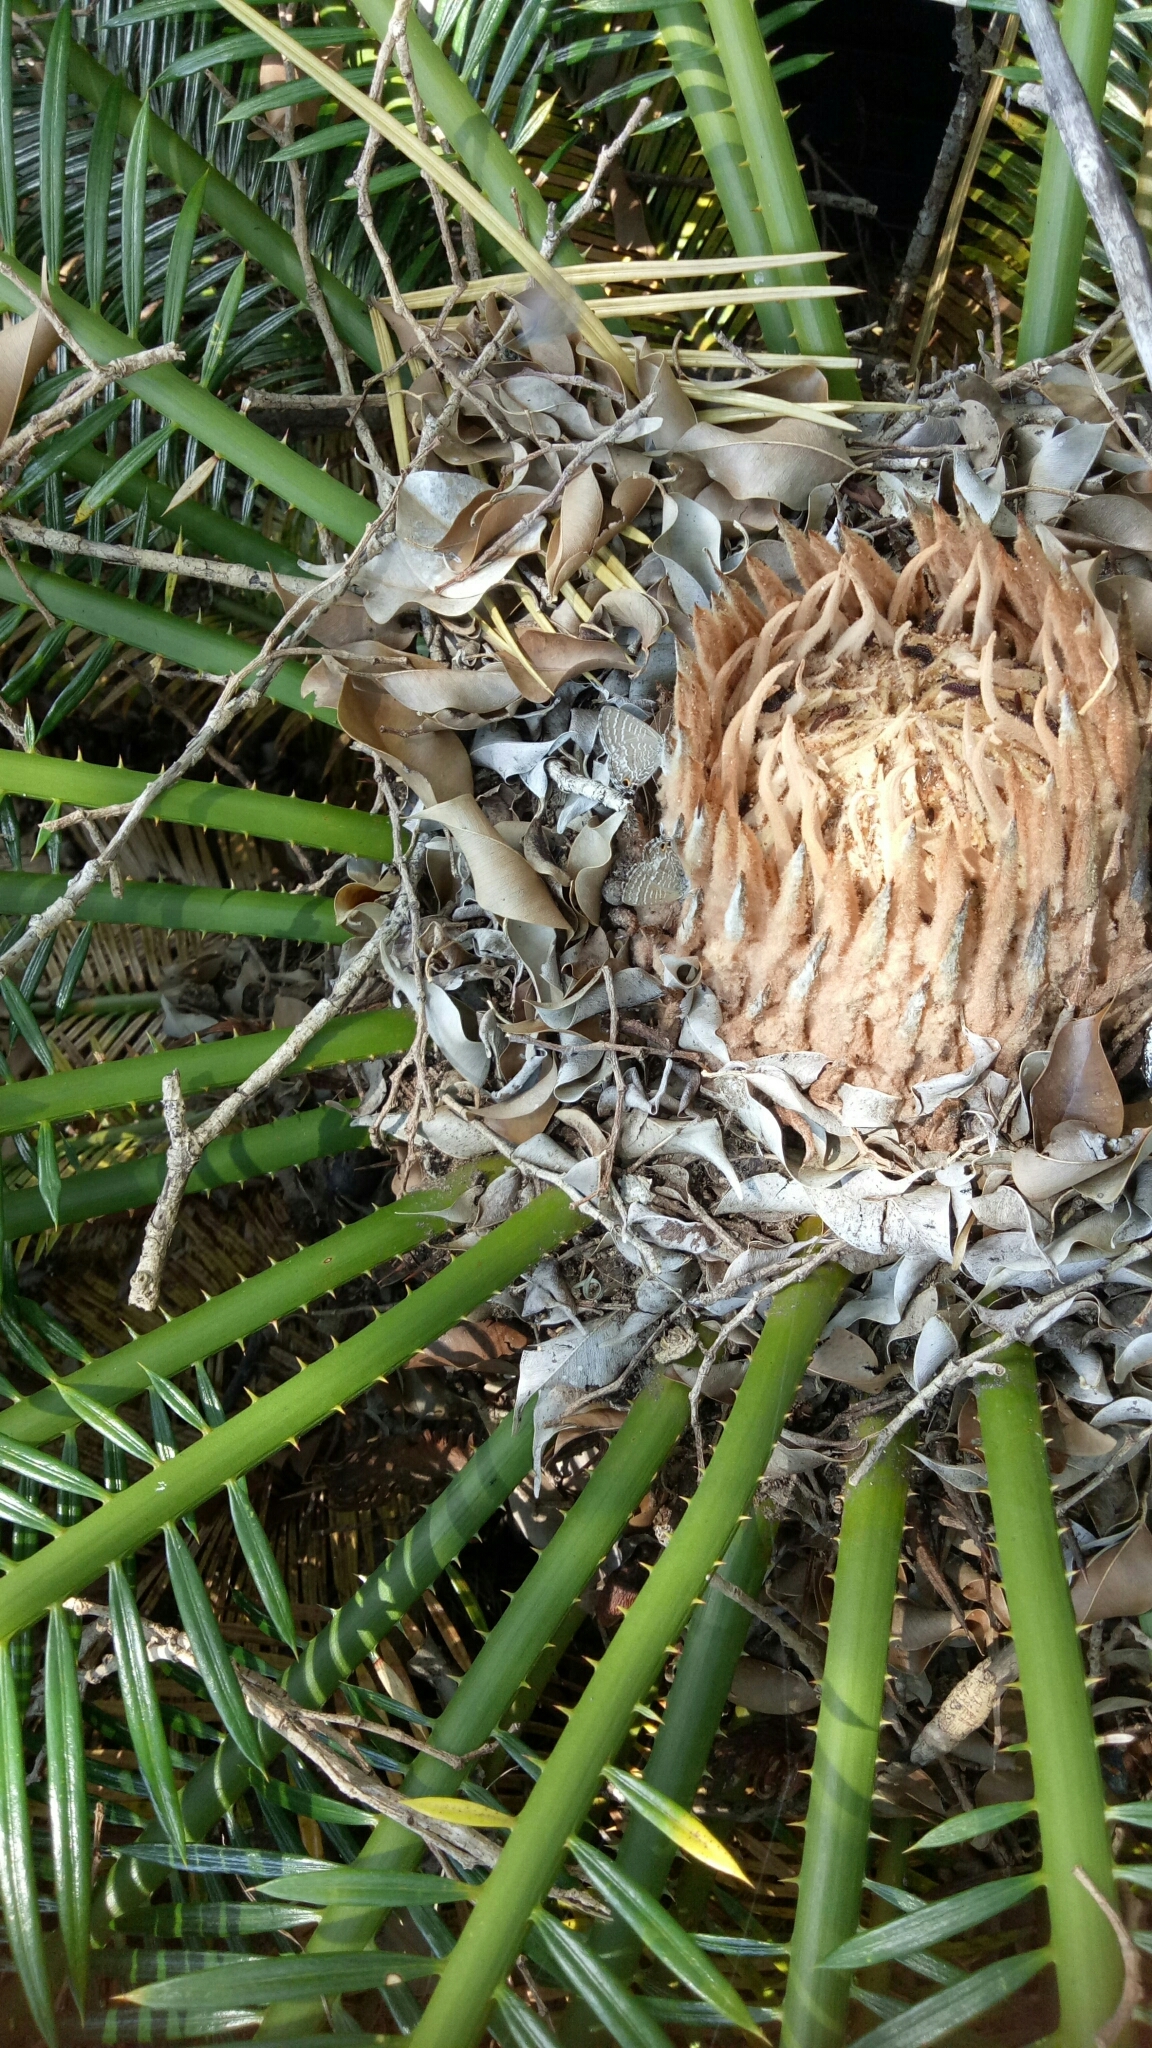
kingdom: Animalia
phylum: Arthropoda
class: Insecta
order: Lepidoptera
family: Lycaenidae
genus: Theclinesthes
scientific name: Theclinesthes onycha
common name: Cycad blue
